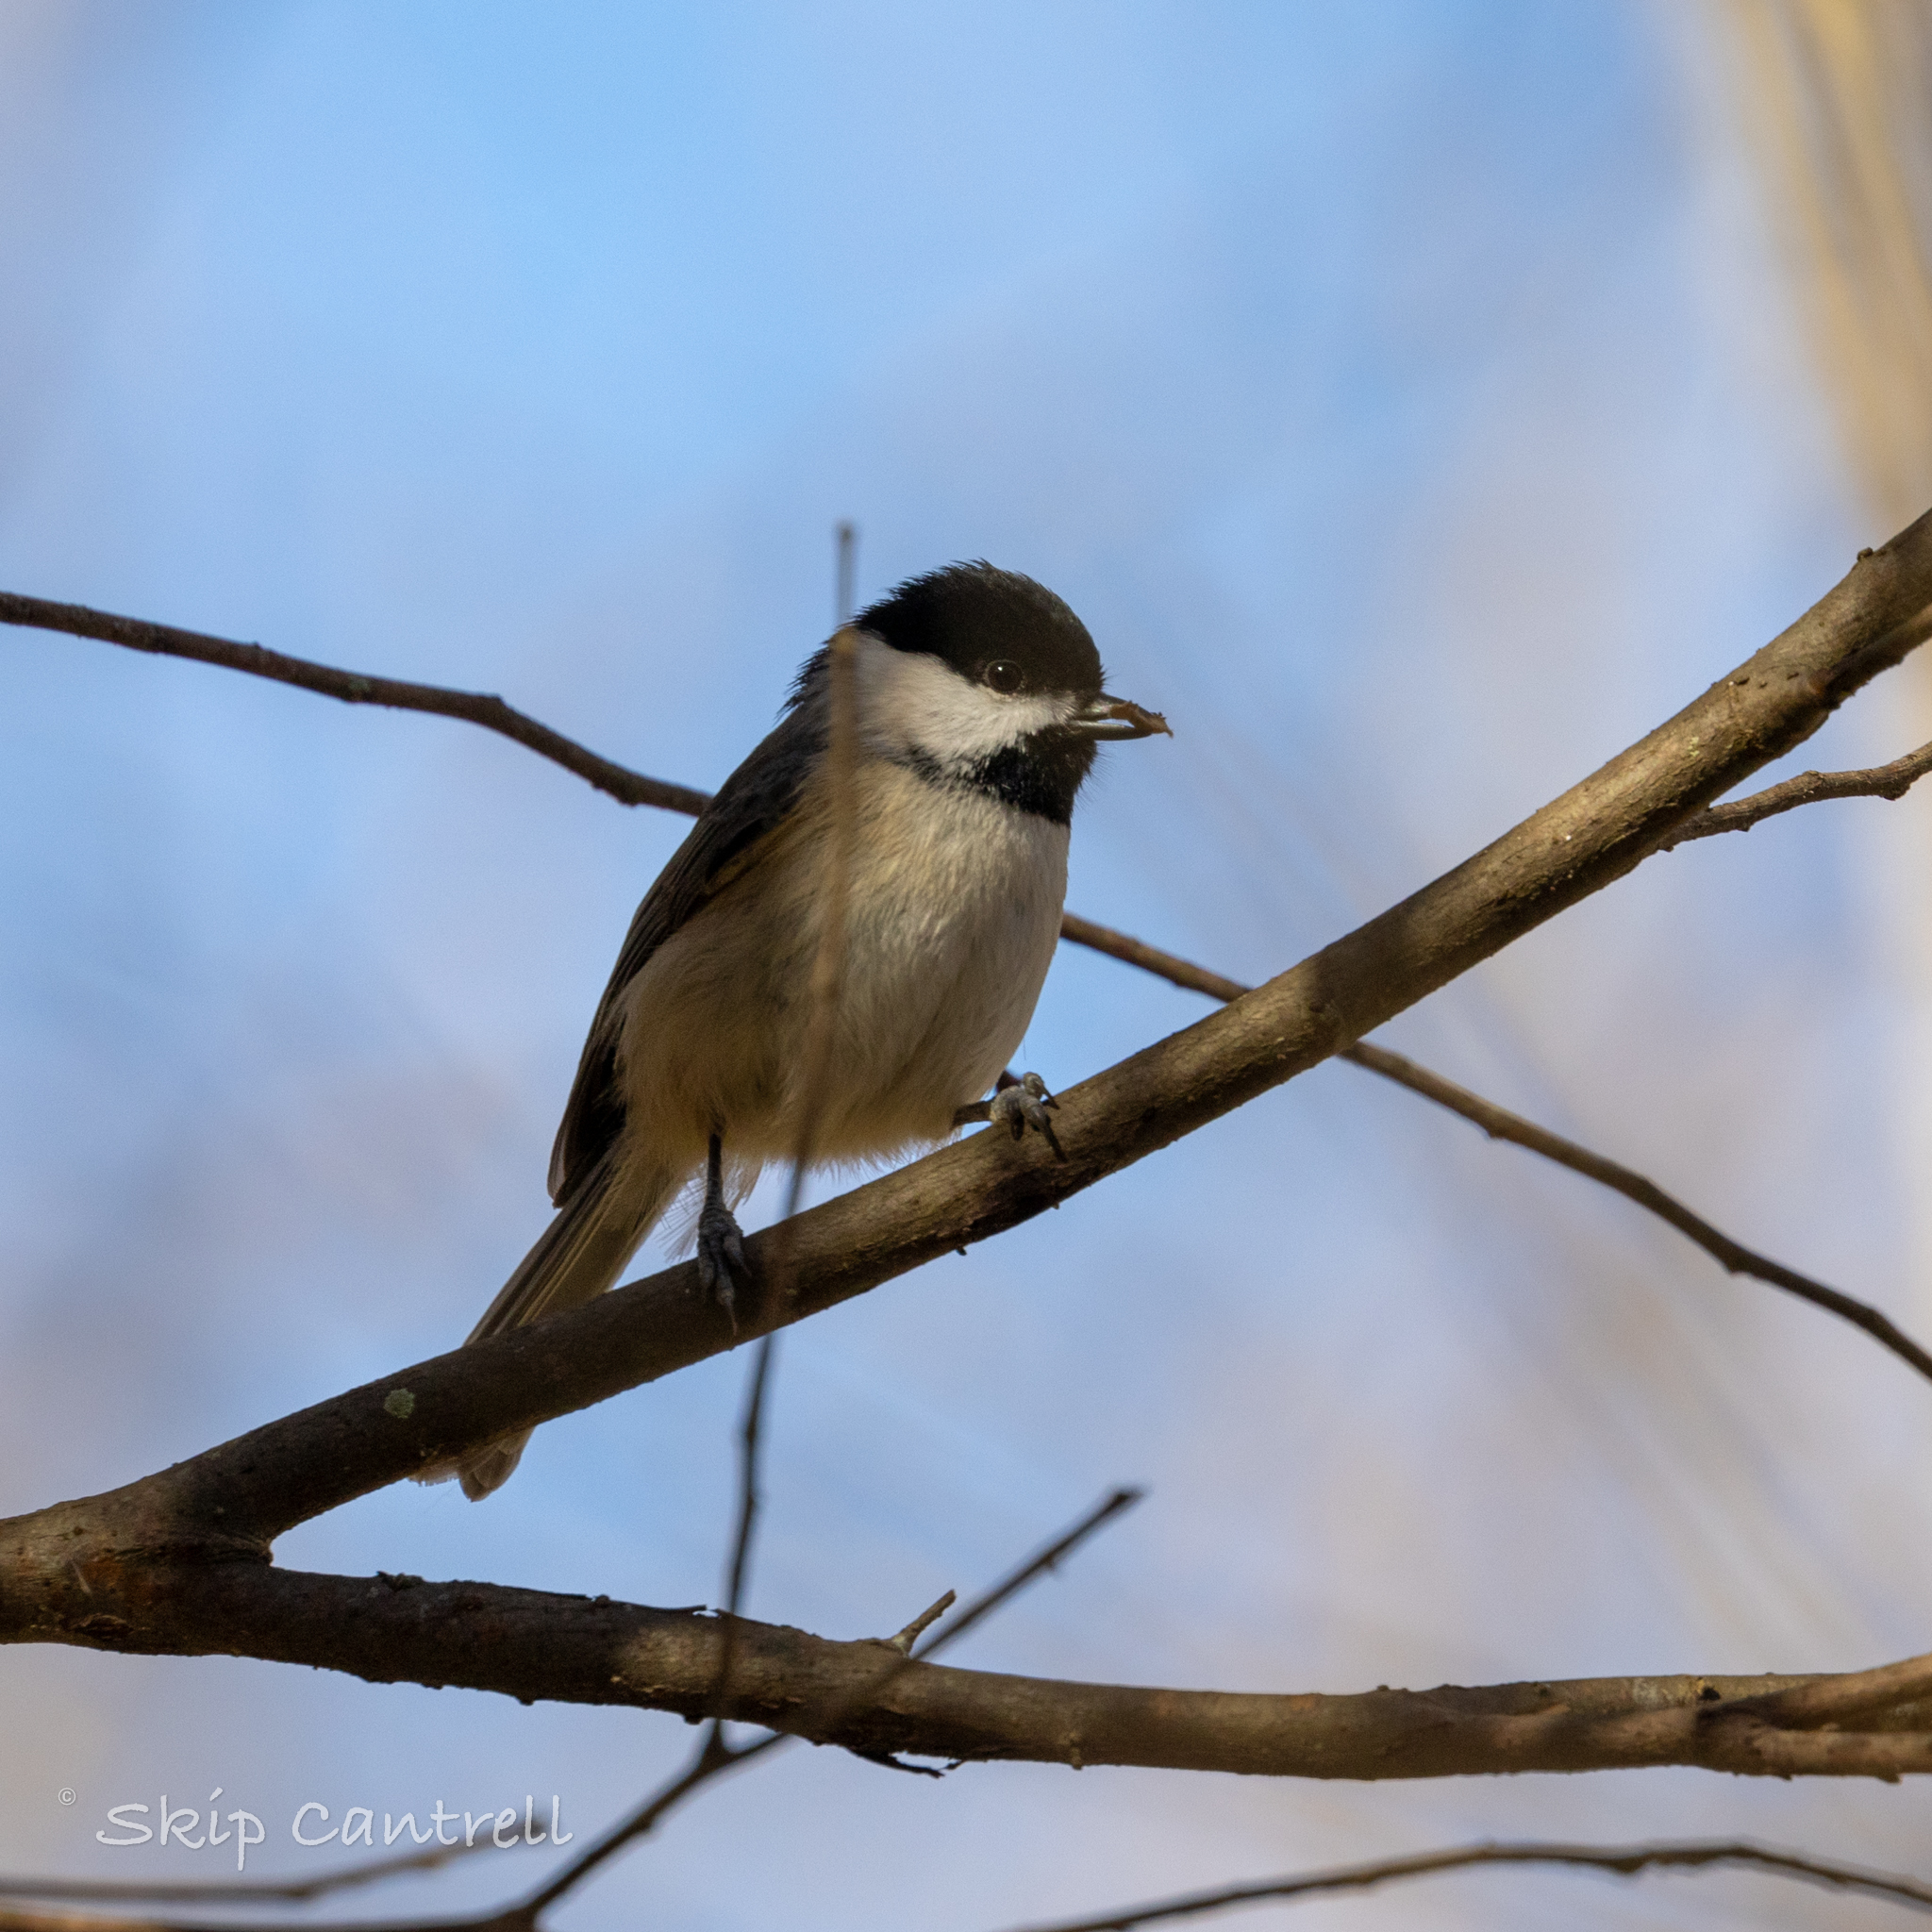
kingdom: Animalia
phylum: Chordata
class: Aves
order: Passeriformes
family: Paridae
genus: Poecile
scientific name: Poecile carolinensis
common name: Carolina chickadee
